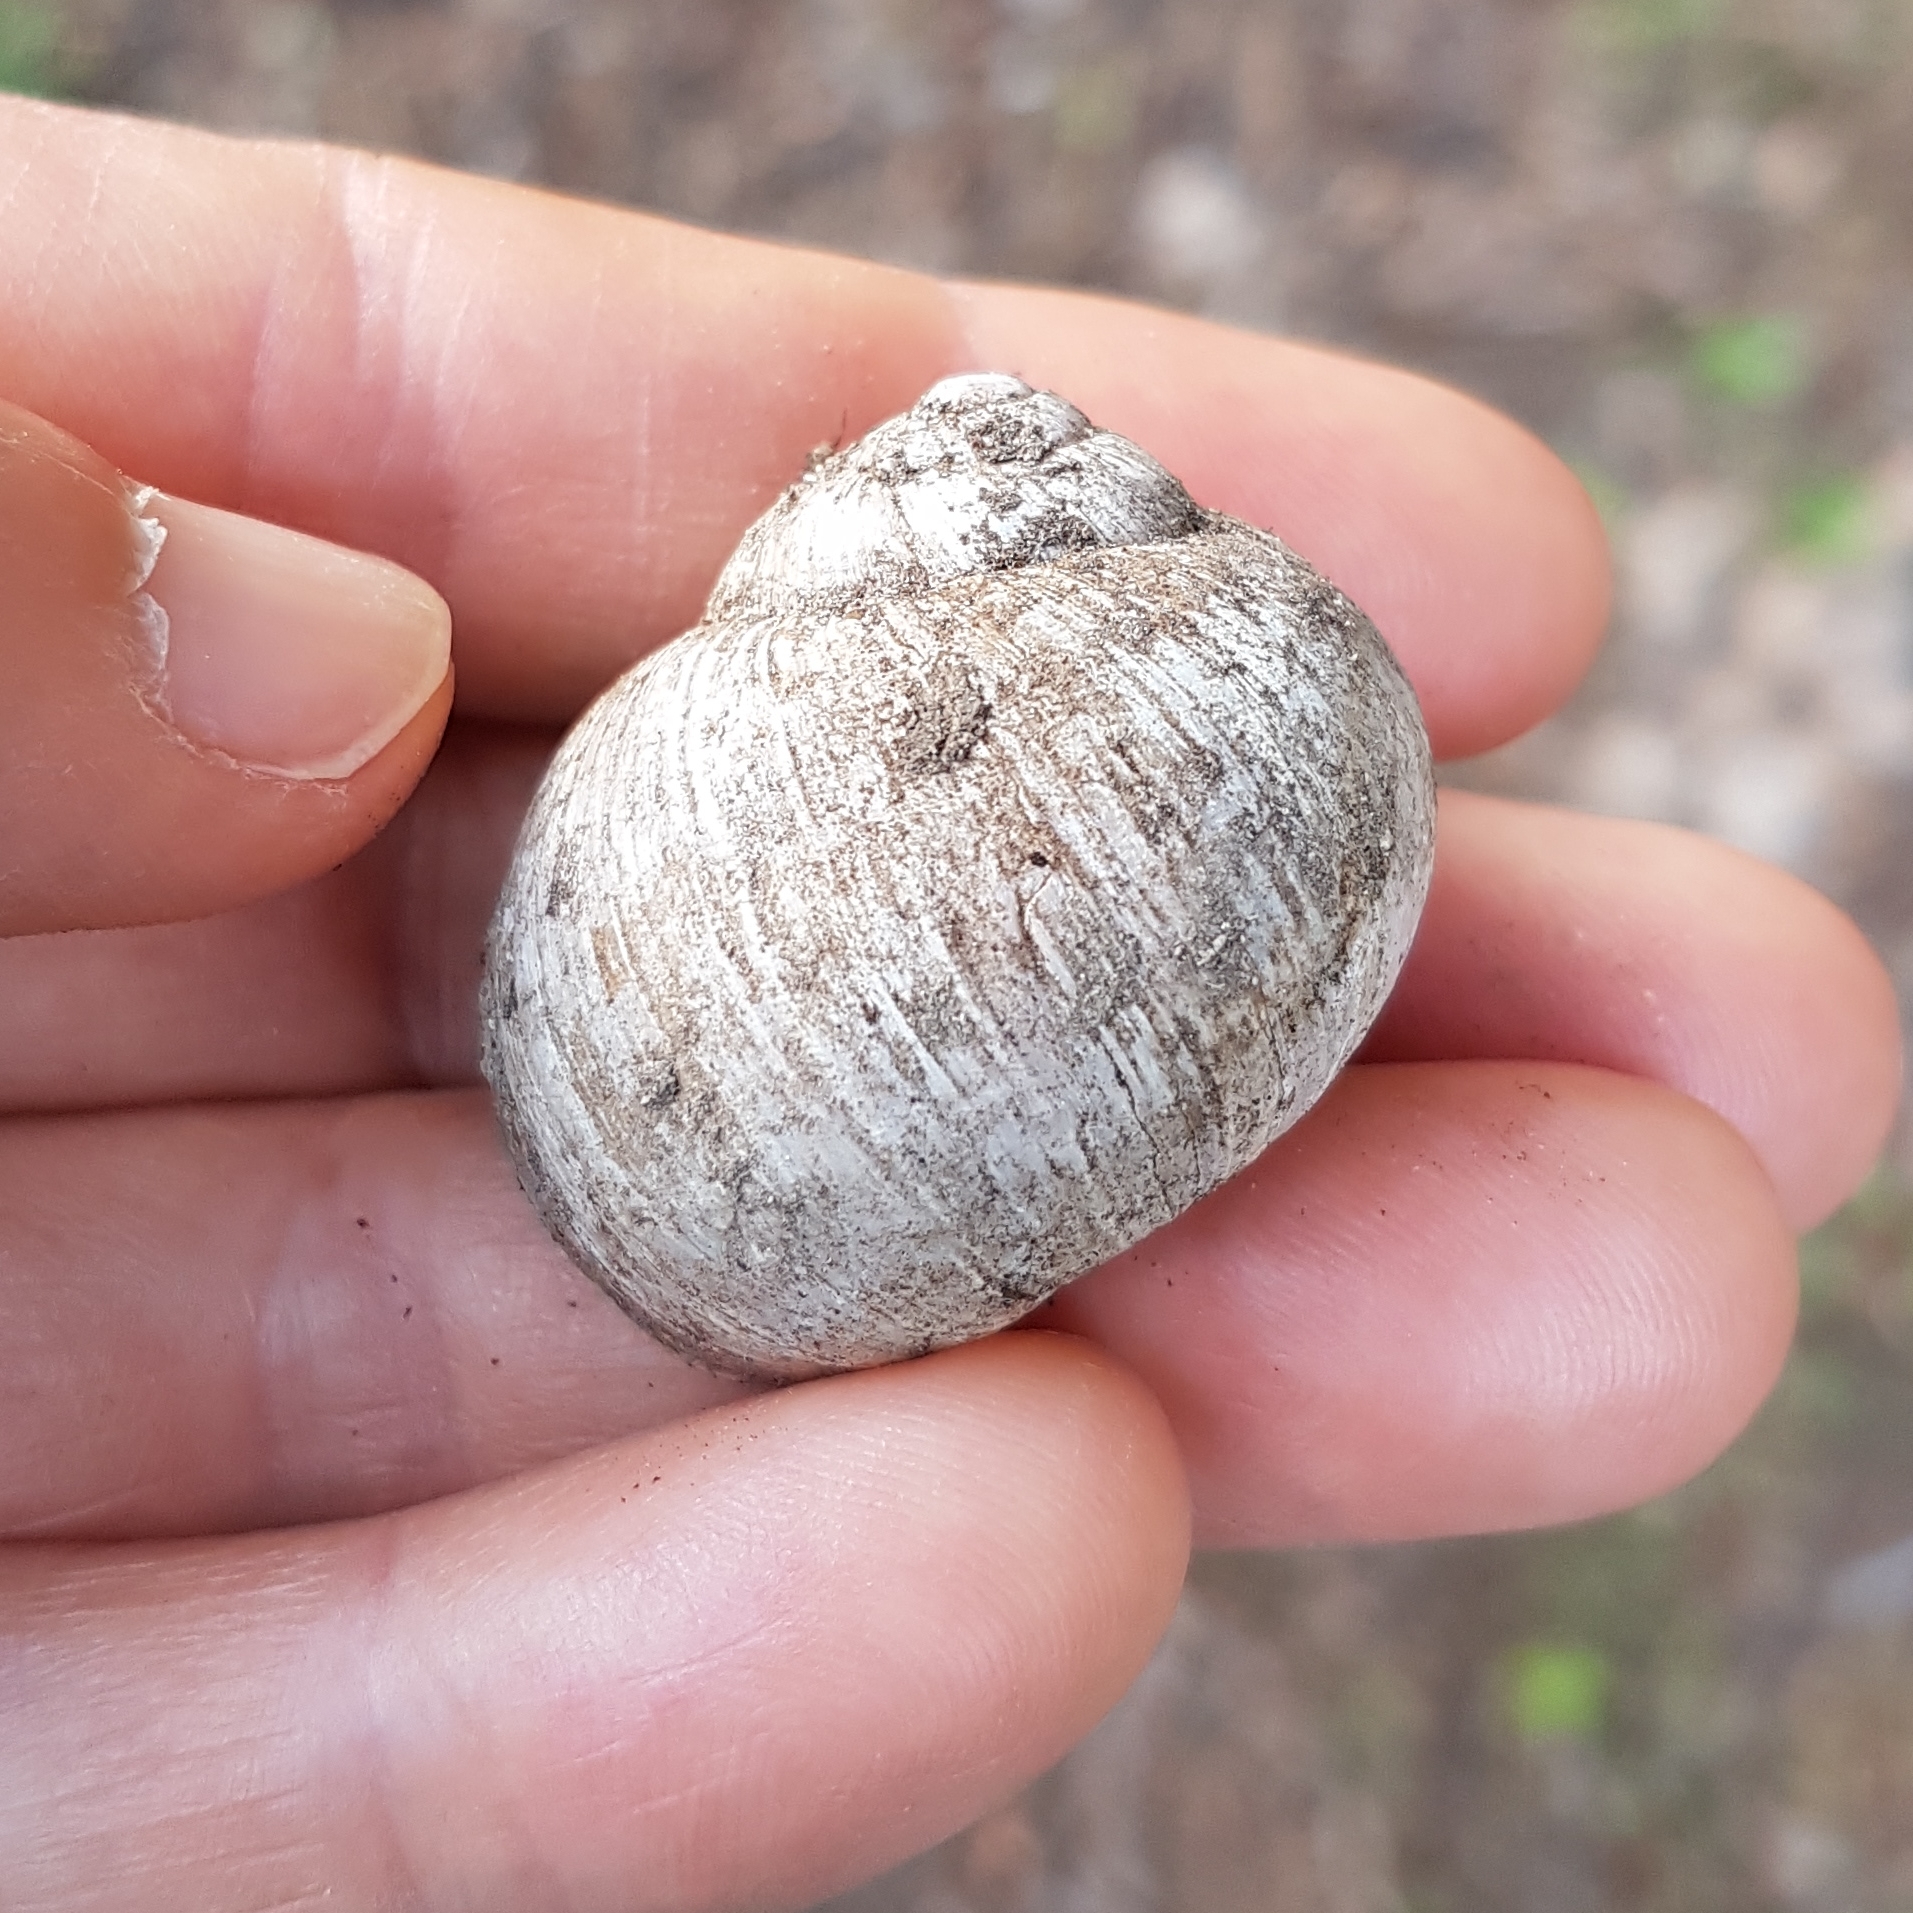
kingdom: Animalia
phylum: Mollusca
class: Gastropoda
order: Stylommatophora
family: Helicidae
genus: Helix
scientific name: Helix melanostoma
